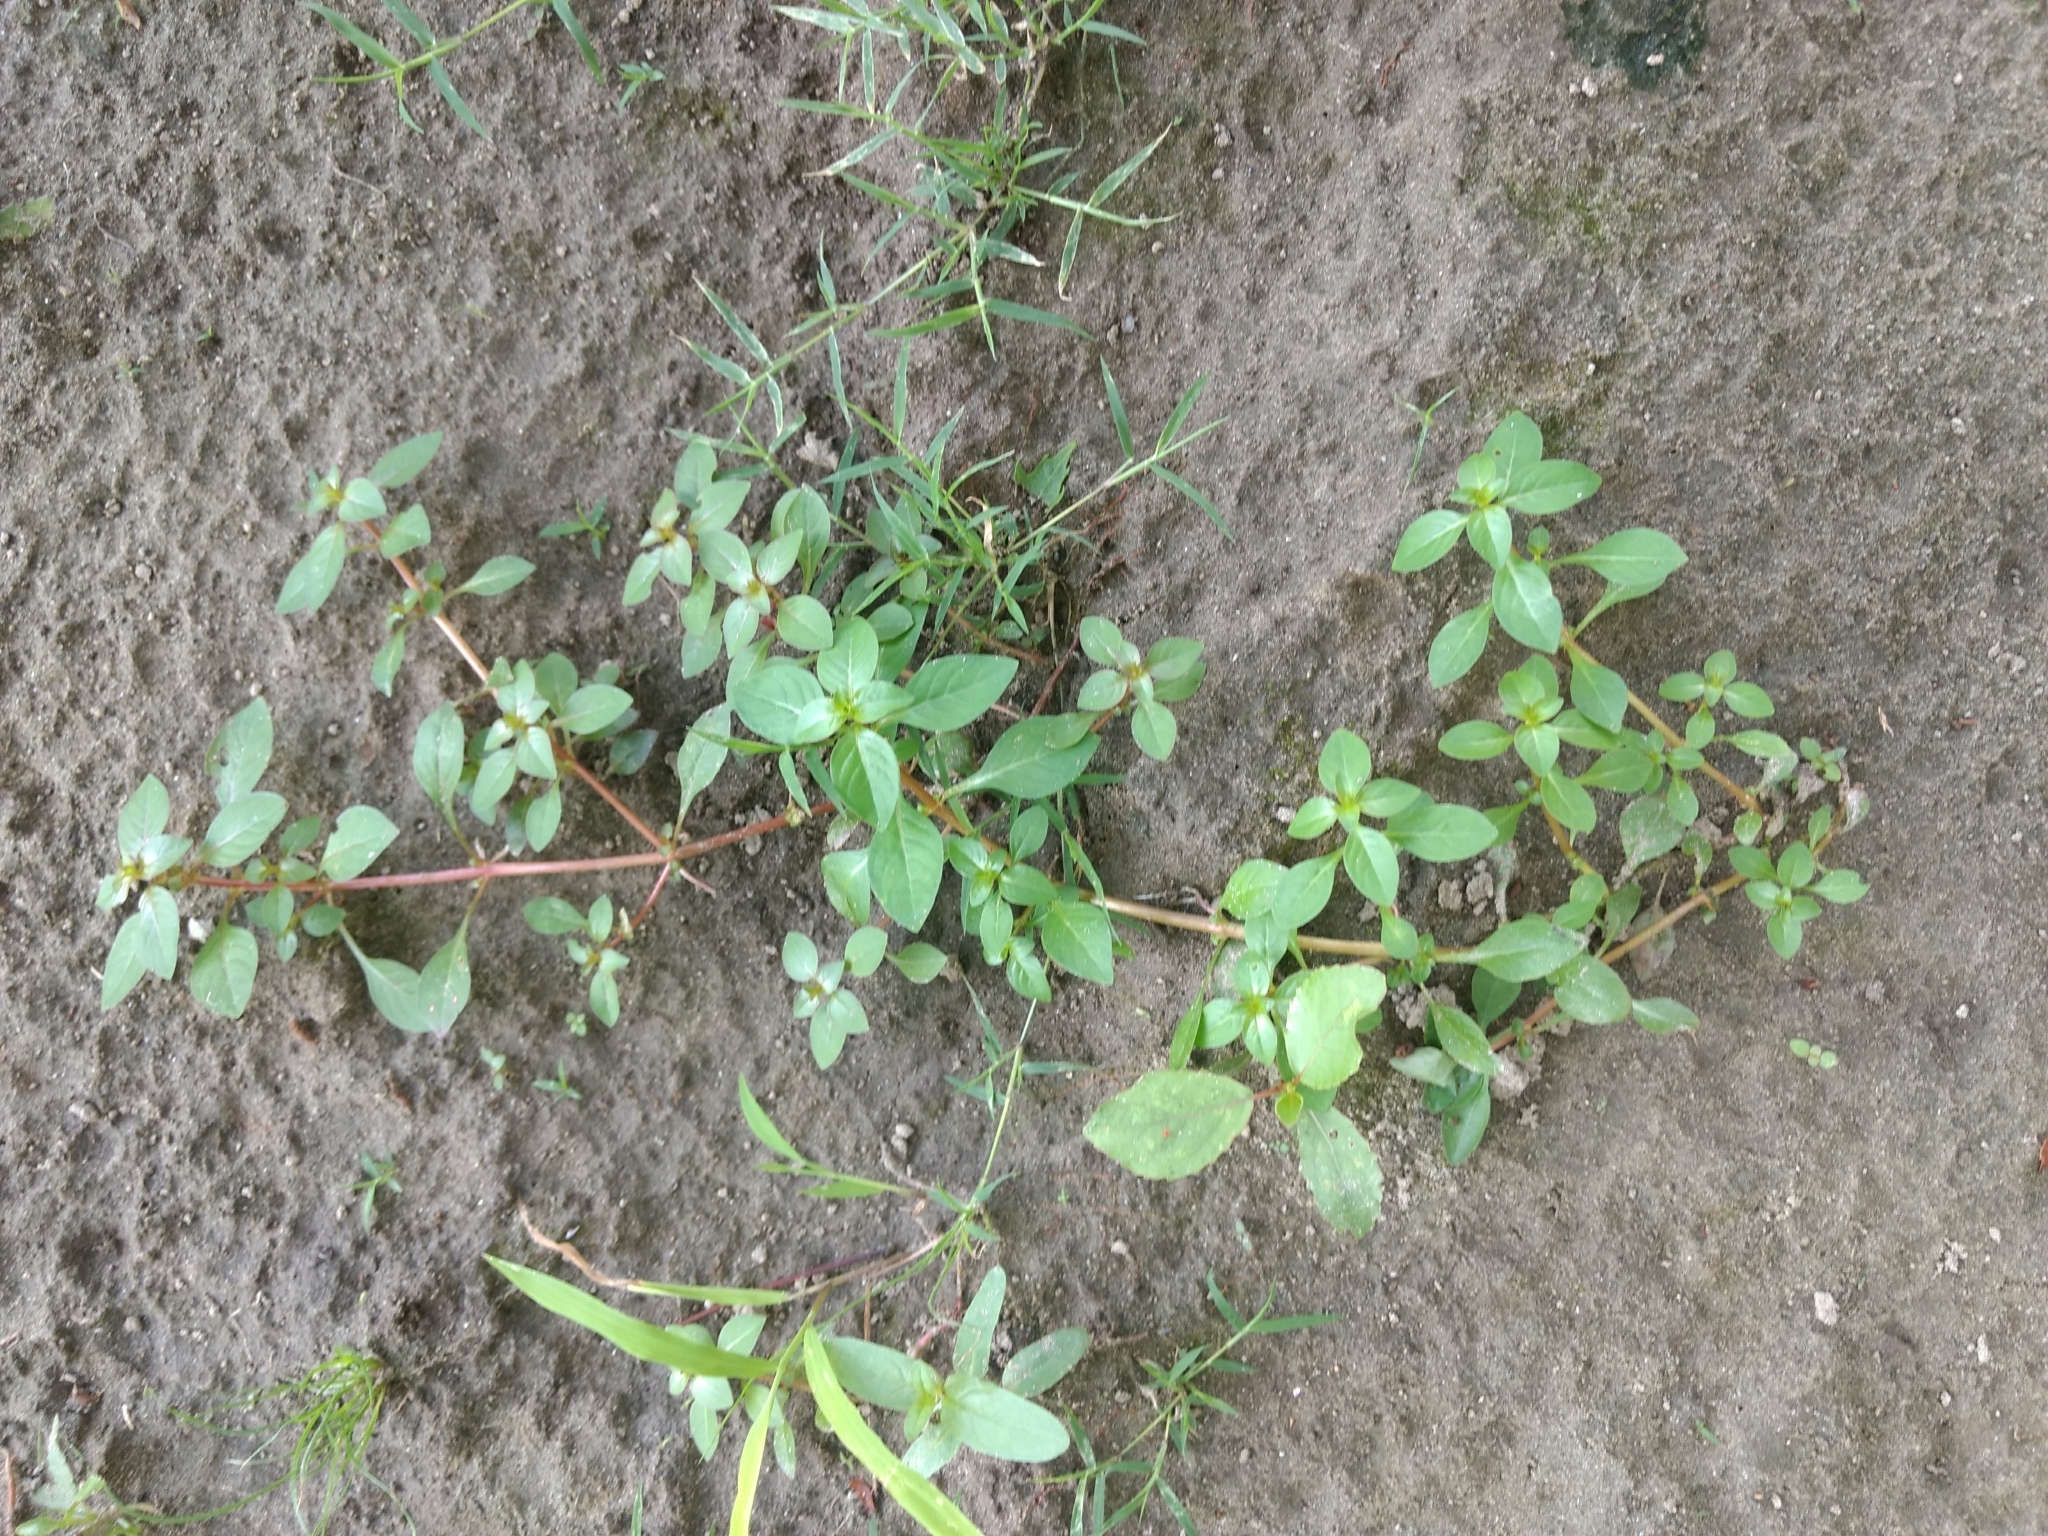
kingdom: Plantae
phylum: Tracheophyta
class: Magnoliopsida
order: Myrtales
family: Onagraceae
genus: Ludwigia
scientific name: Ludwigia palustris
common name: Hampshire-purslane
